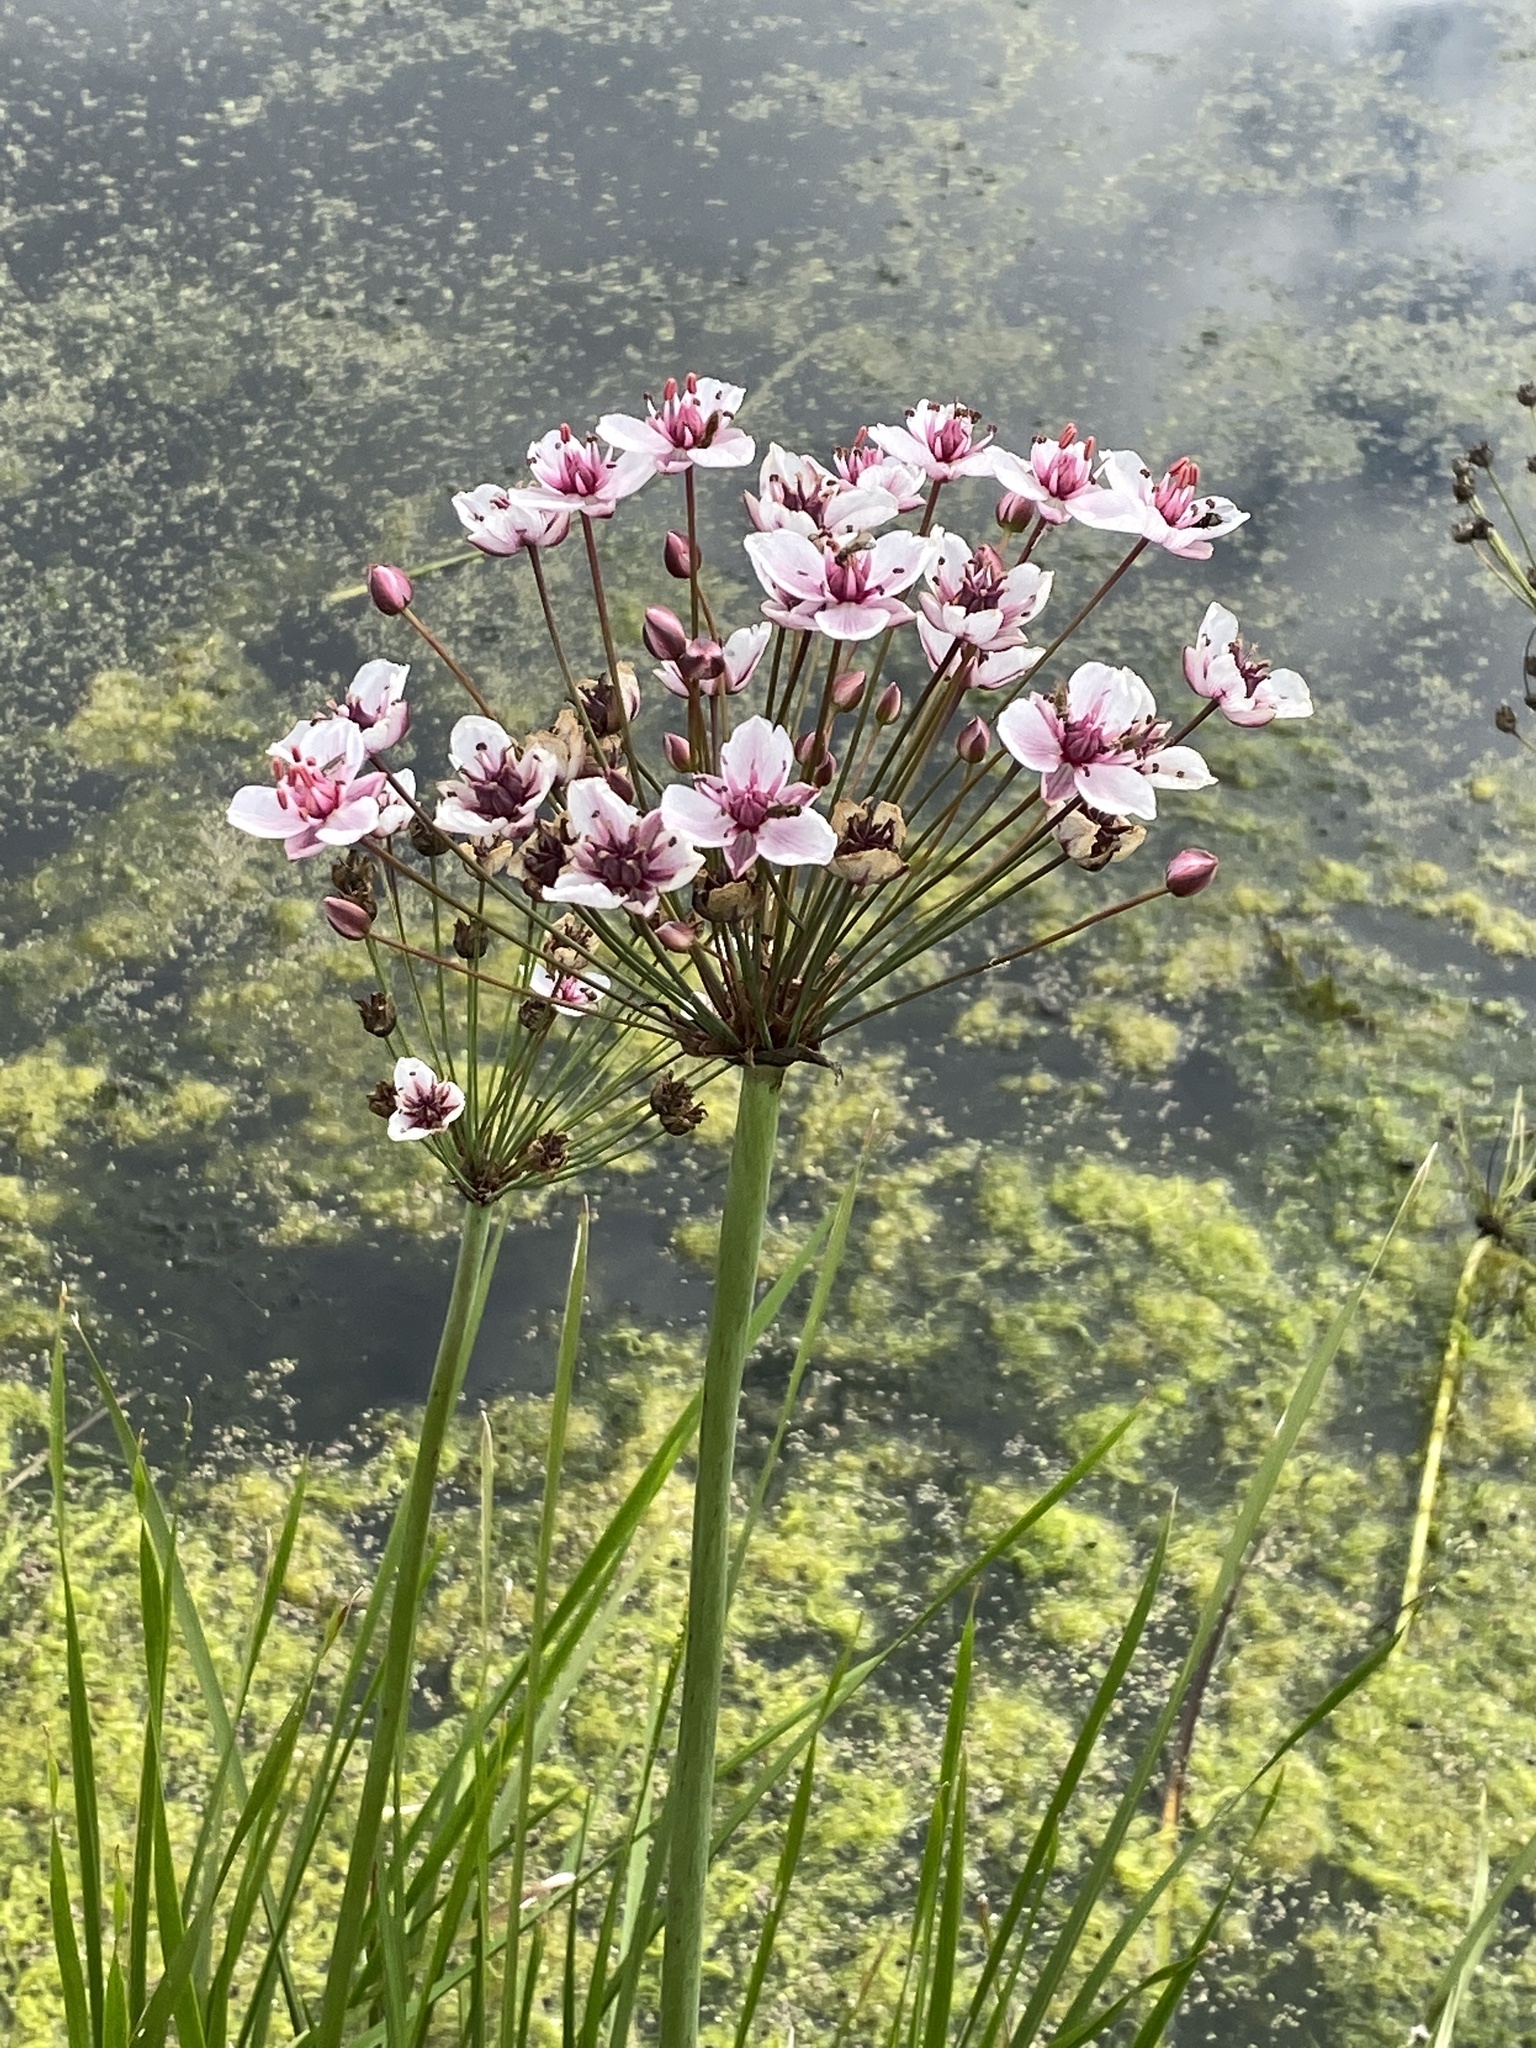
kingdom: Plantae
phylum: Tracheophyta
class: Liliopsida
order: Alismatales
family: Butomaceae
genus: Butomus
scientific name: Butomus umbellatus
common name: Flowering-rush
